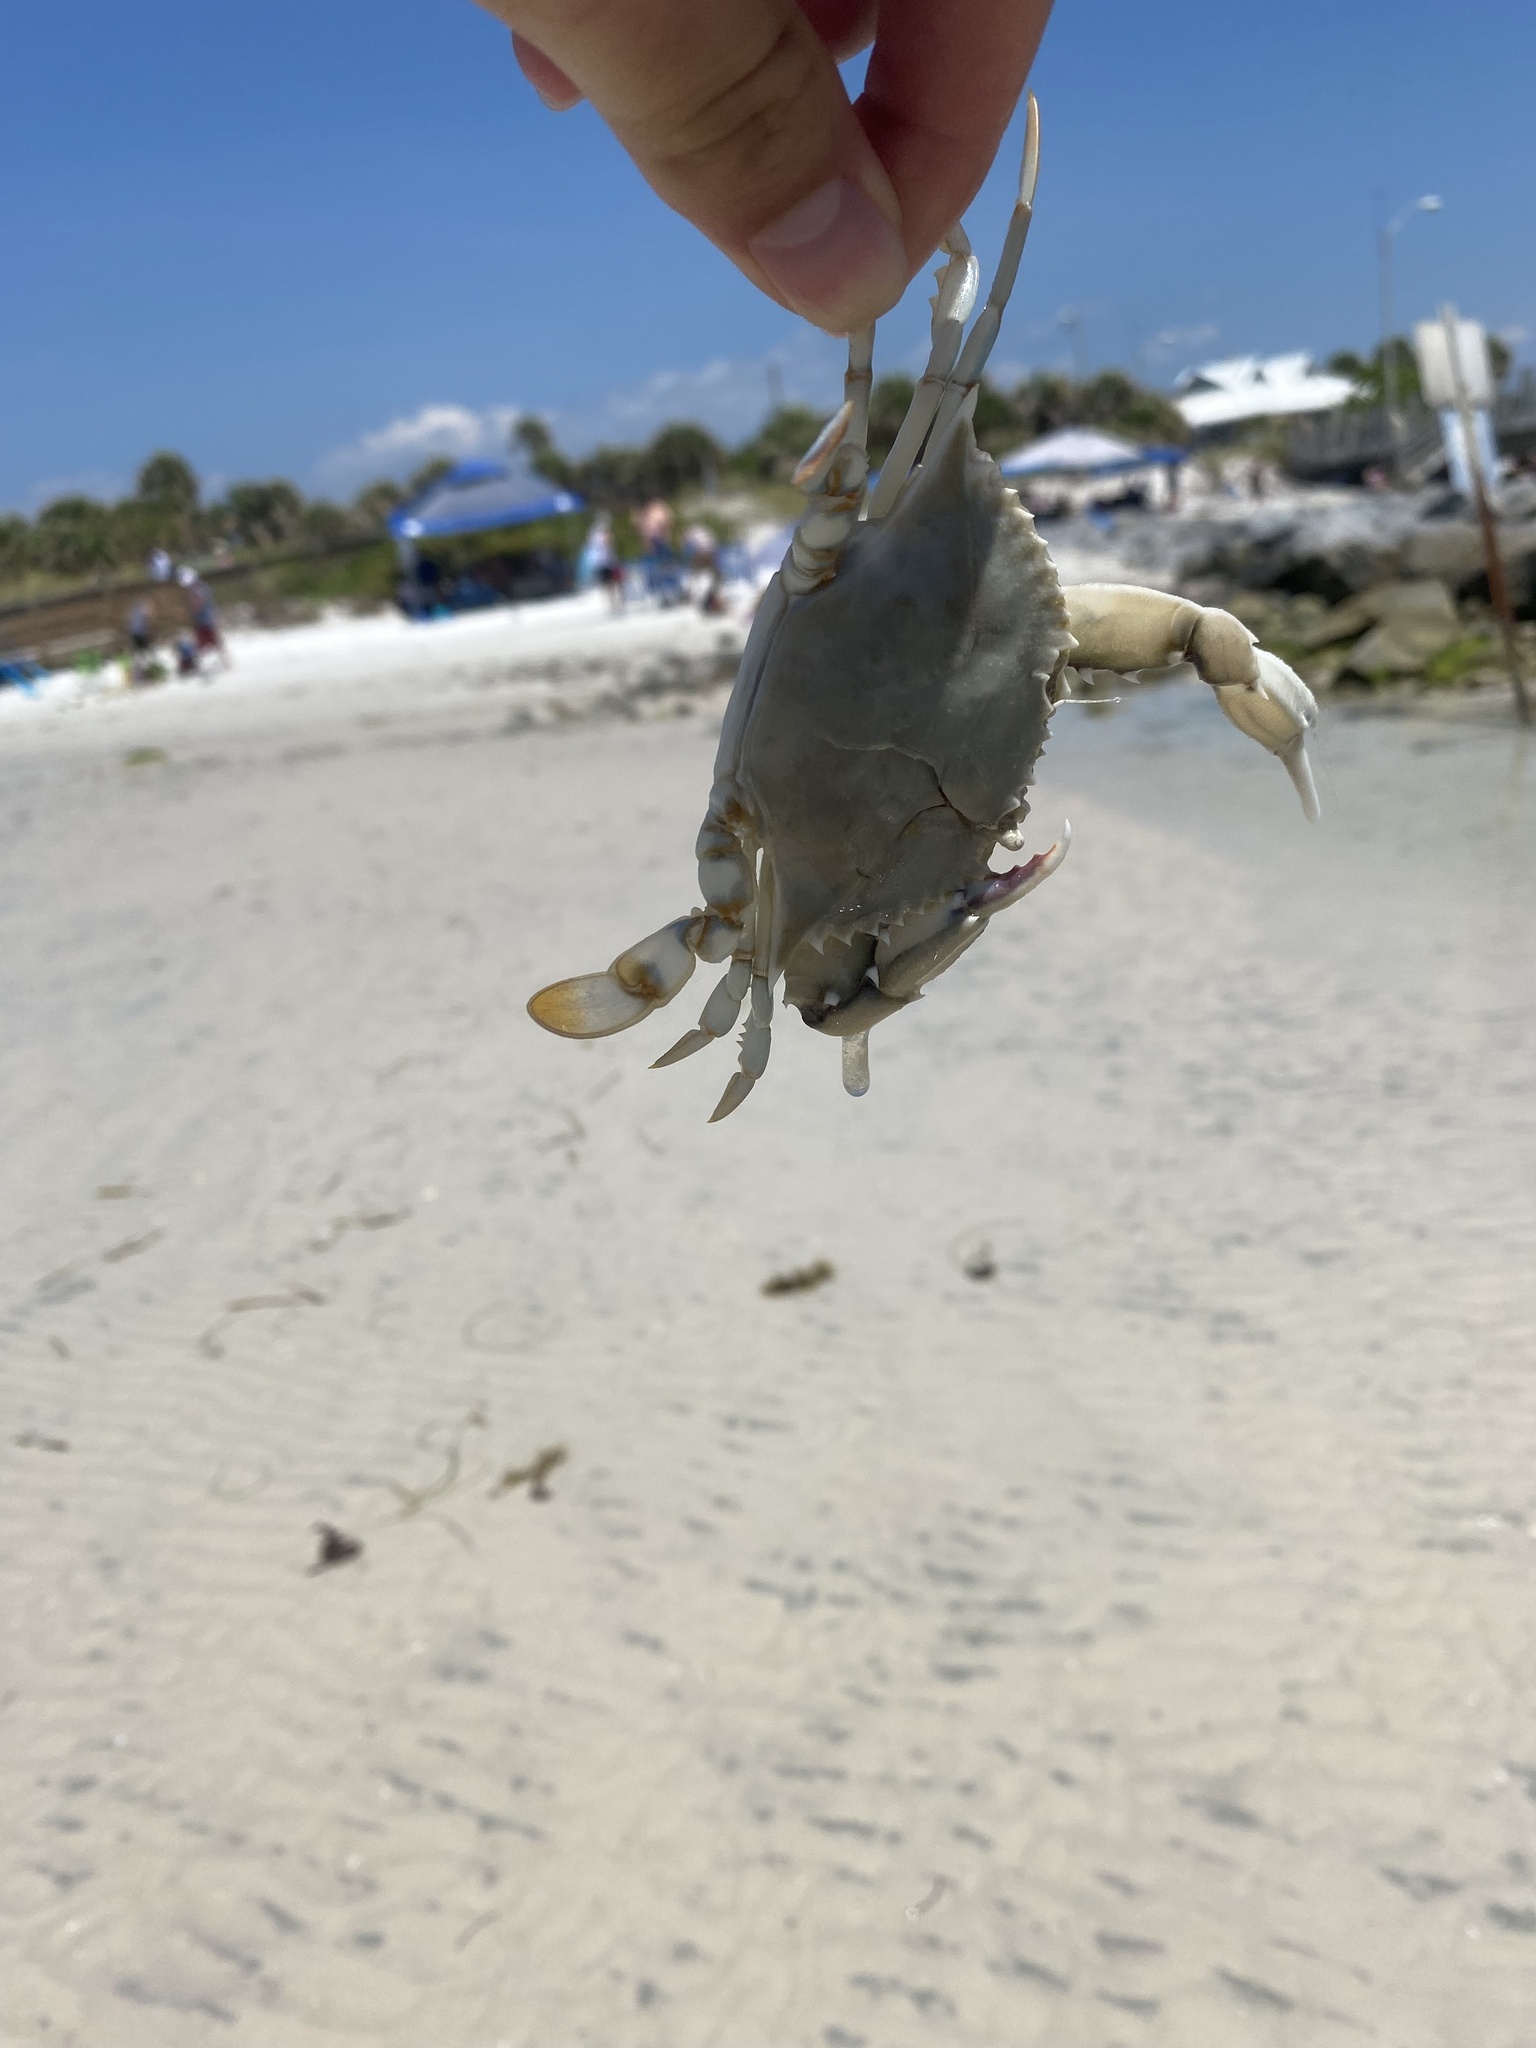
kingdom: Animalia
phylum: Arthropoda
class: Malacostraca
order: Decapoda
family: Portunidae
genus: Callinectes
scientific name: Callinectes ornatus
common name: Ornate crab
